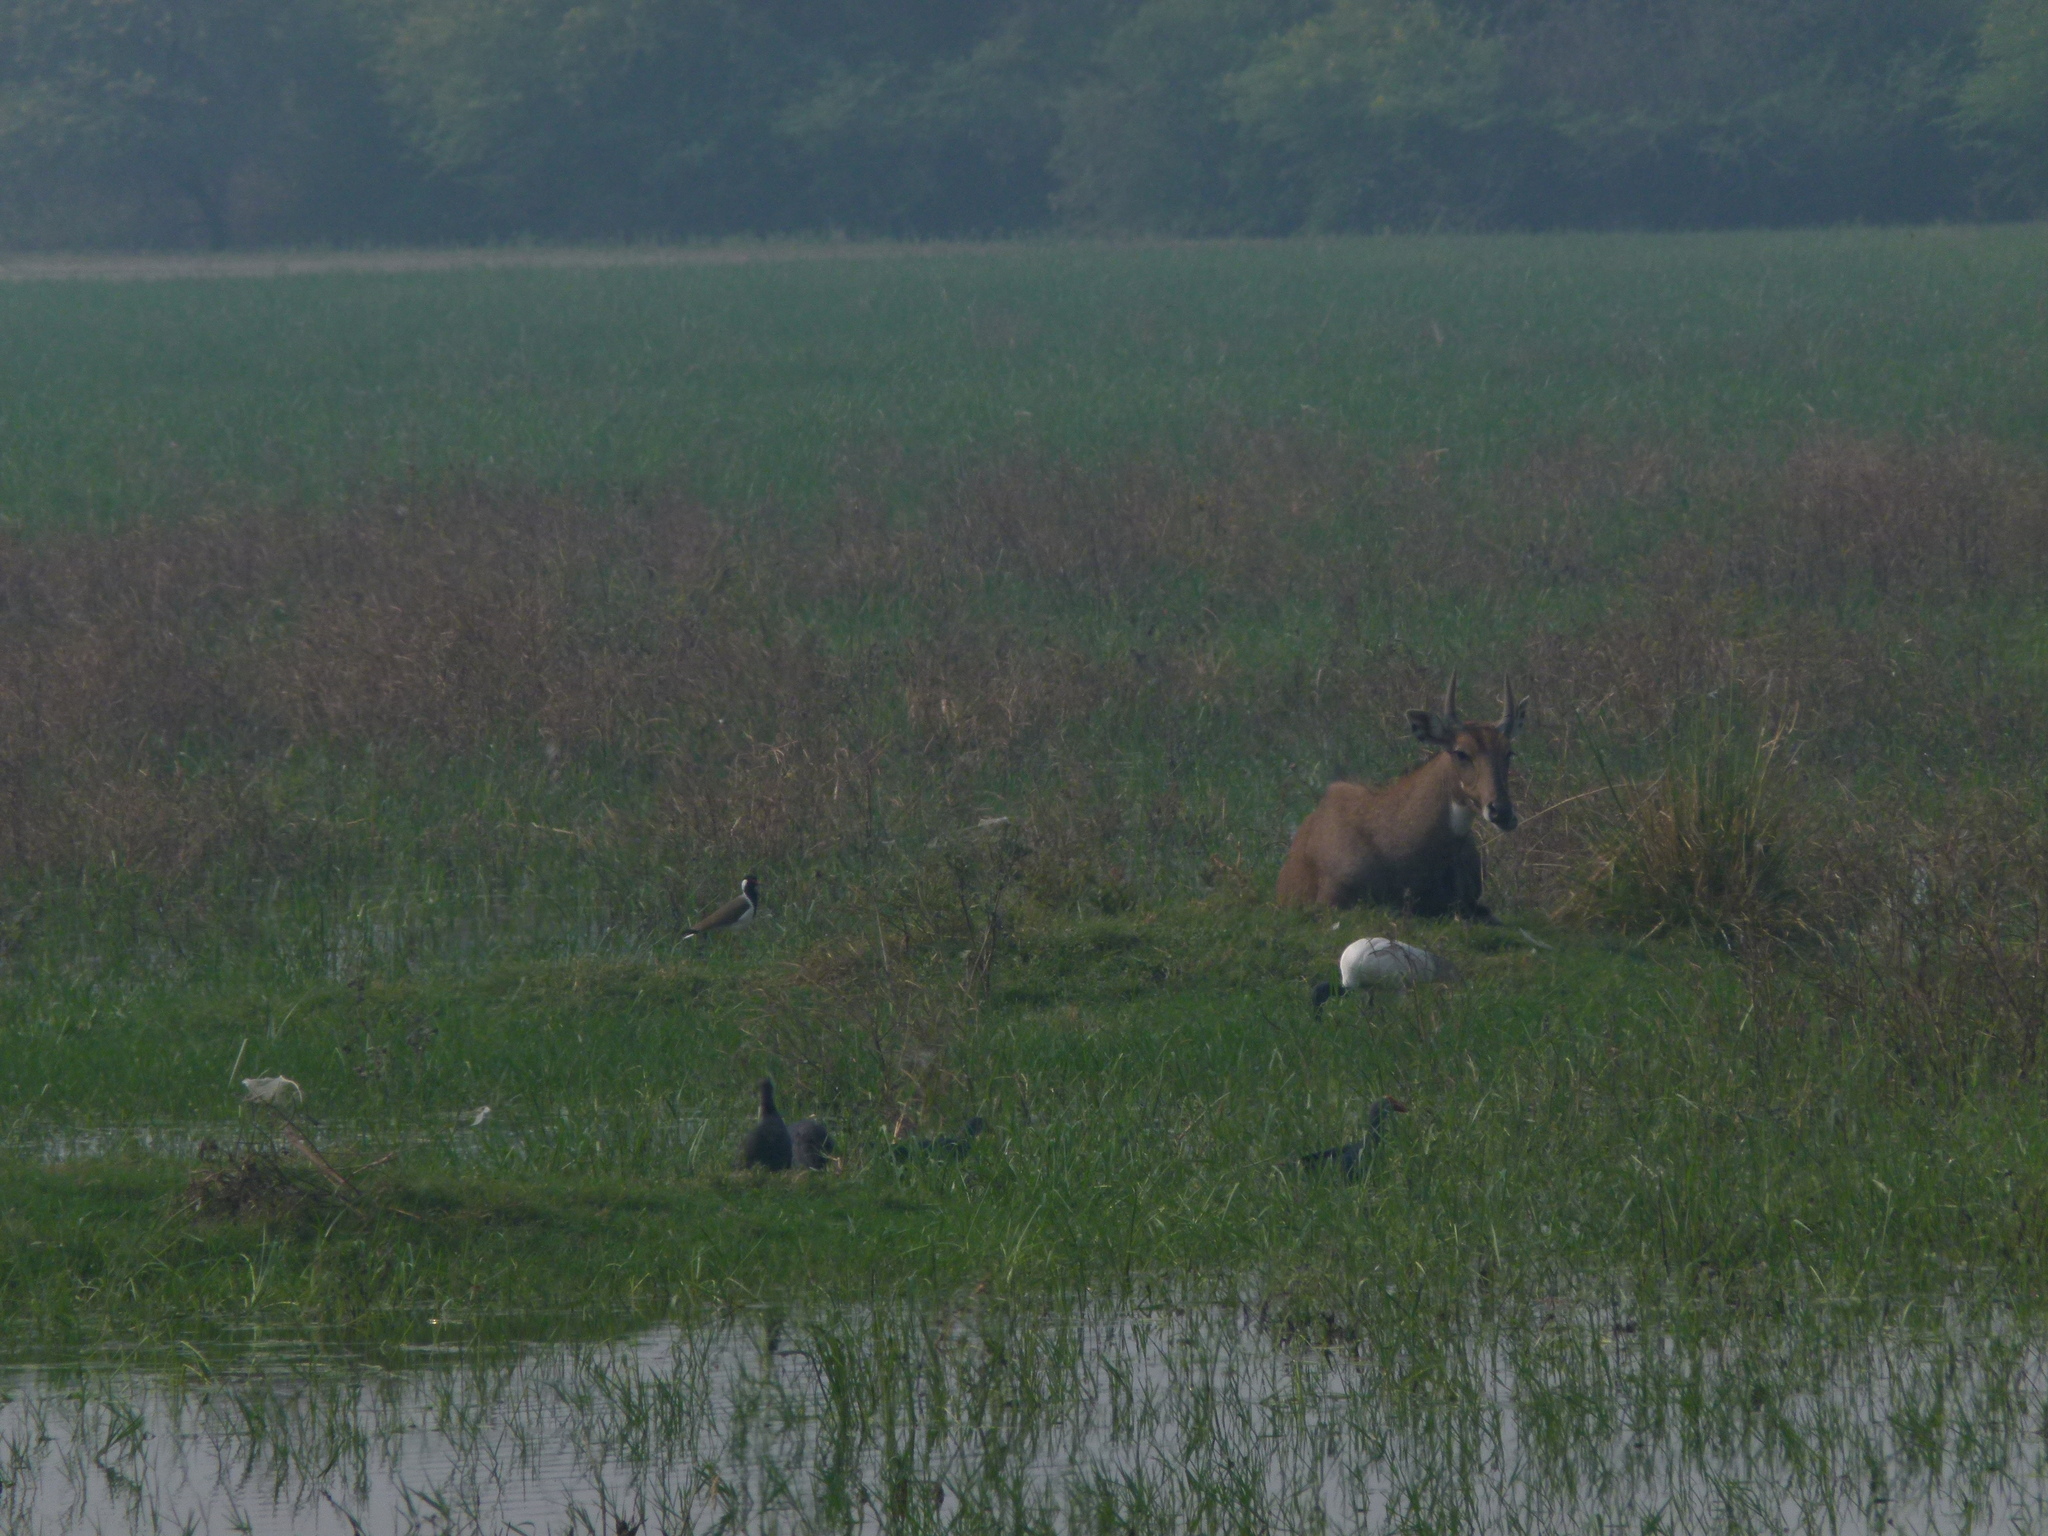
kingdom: Animalia
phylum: Chordata
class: Mammalia
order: Artiodactyla
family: Bovidae
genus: Boselaphus
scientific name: Boselaphus tragocamelus
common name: Nilgai
